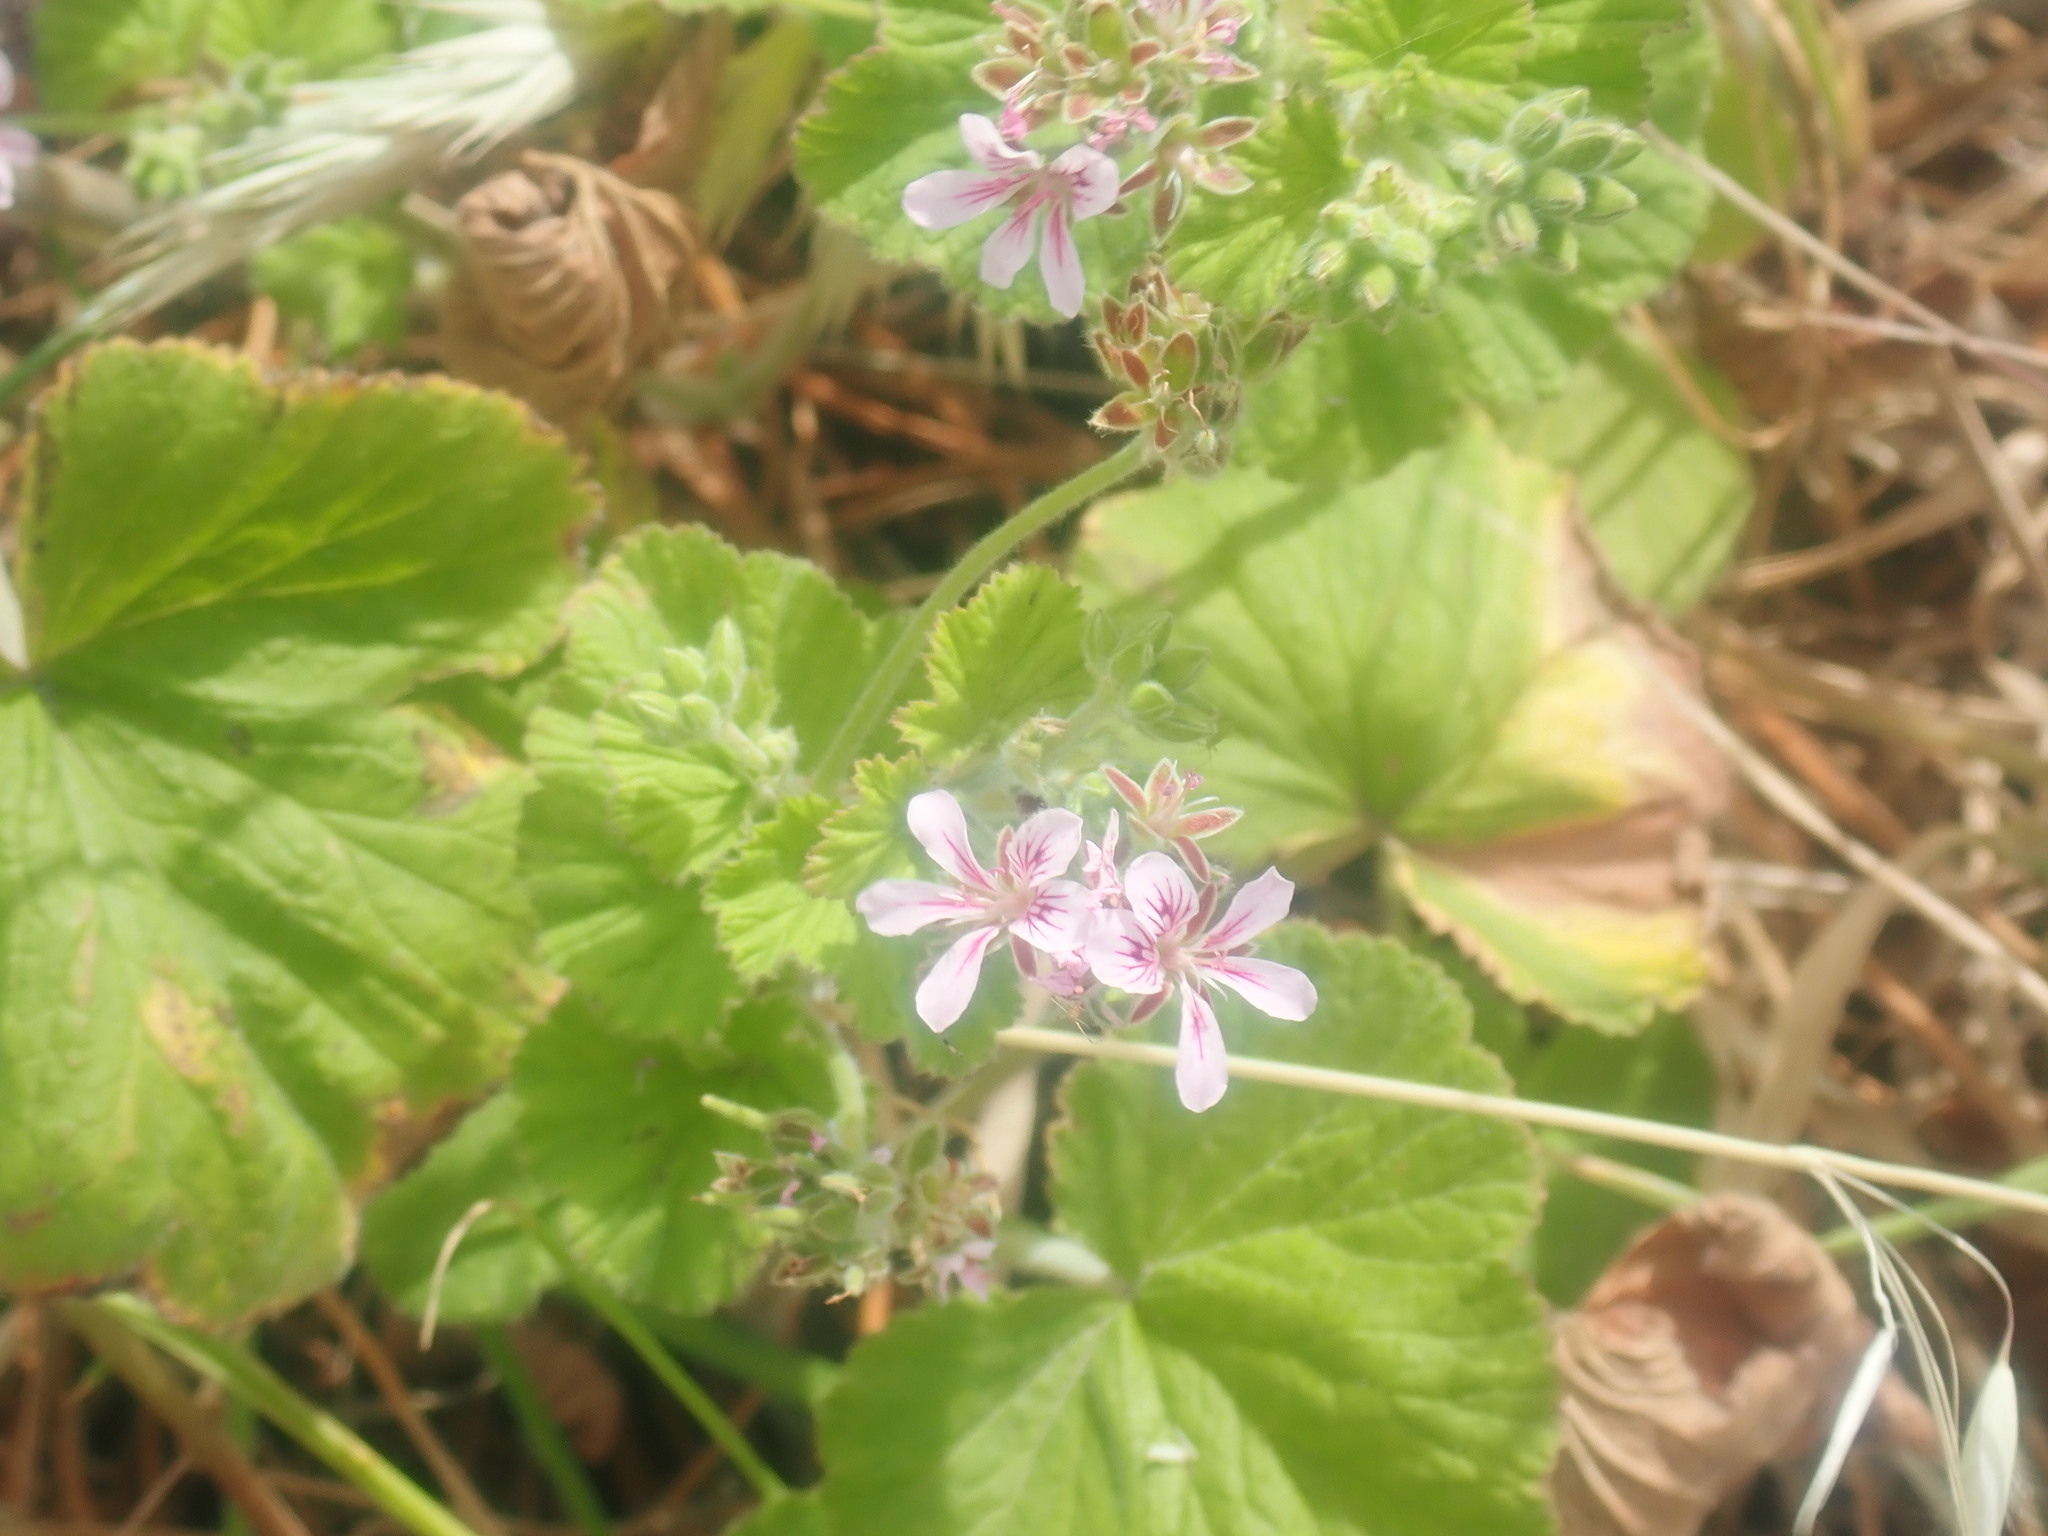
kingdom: Plantae
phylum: Tracheophyta
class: Magnoliopsida
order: Geraniales
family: Geraniaceae
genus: Pelargonium
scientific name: Pelargonium australe
